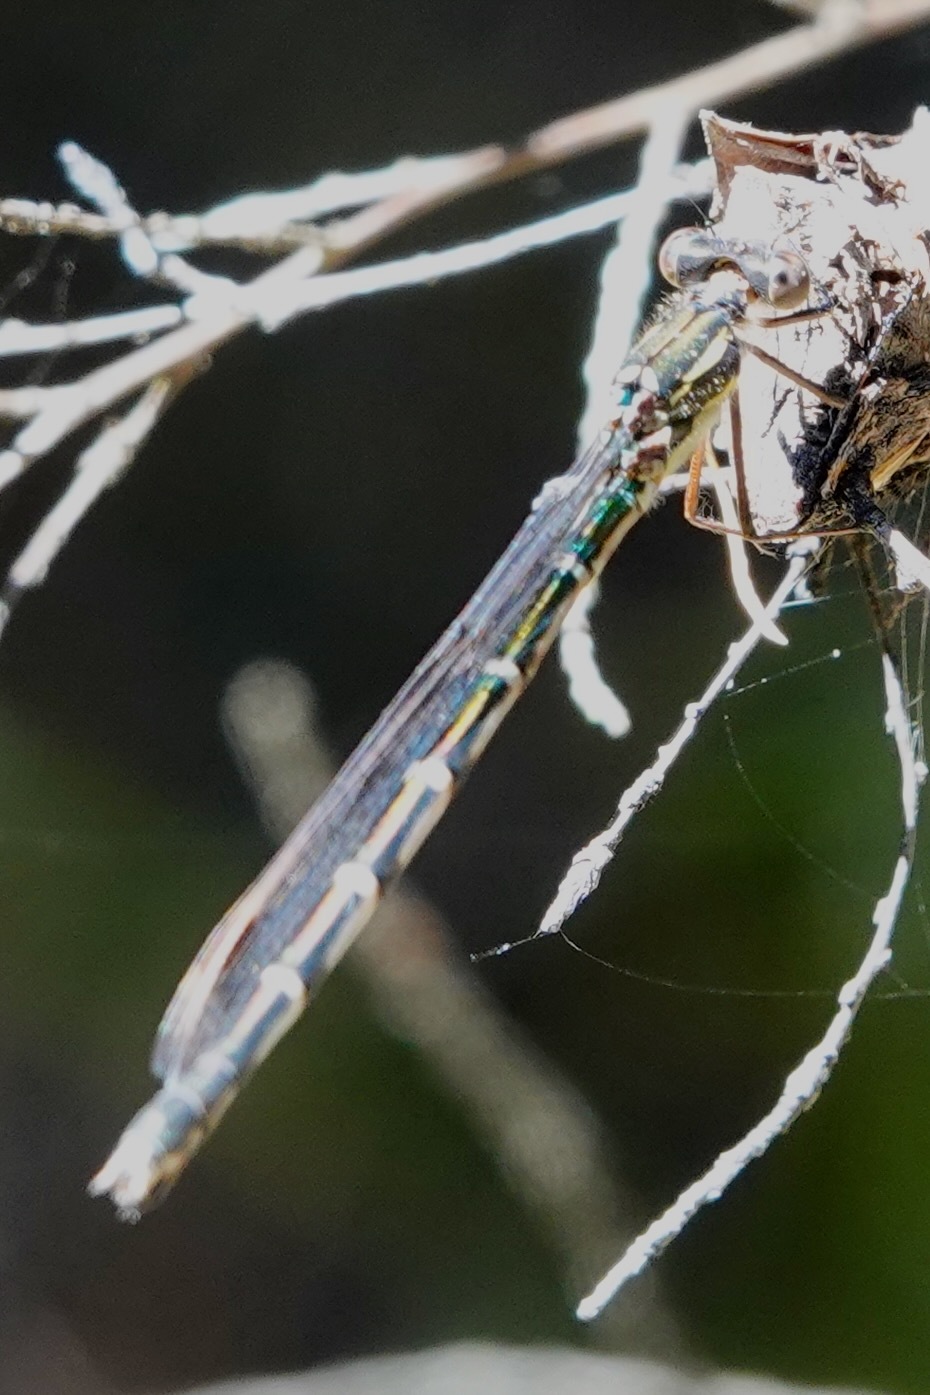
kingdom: Animalia
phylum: Arthropoda
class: Insecta
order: Odonata
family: Lestidae
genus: Austrolestes
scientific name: Austrolestes colensonis
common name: Blue damselfly
